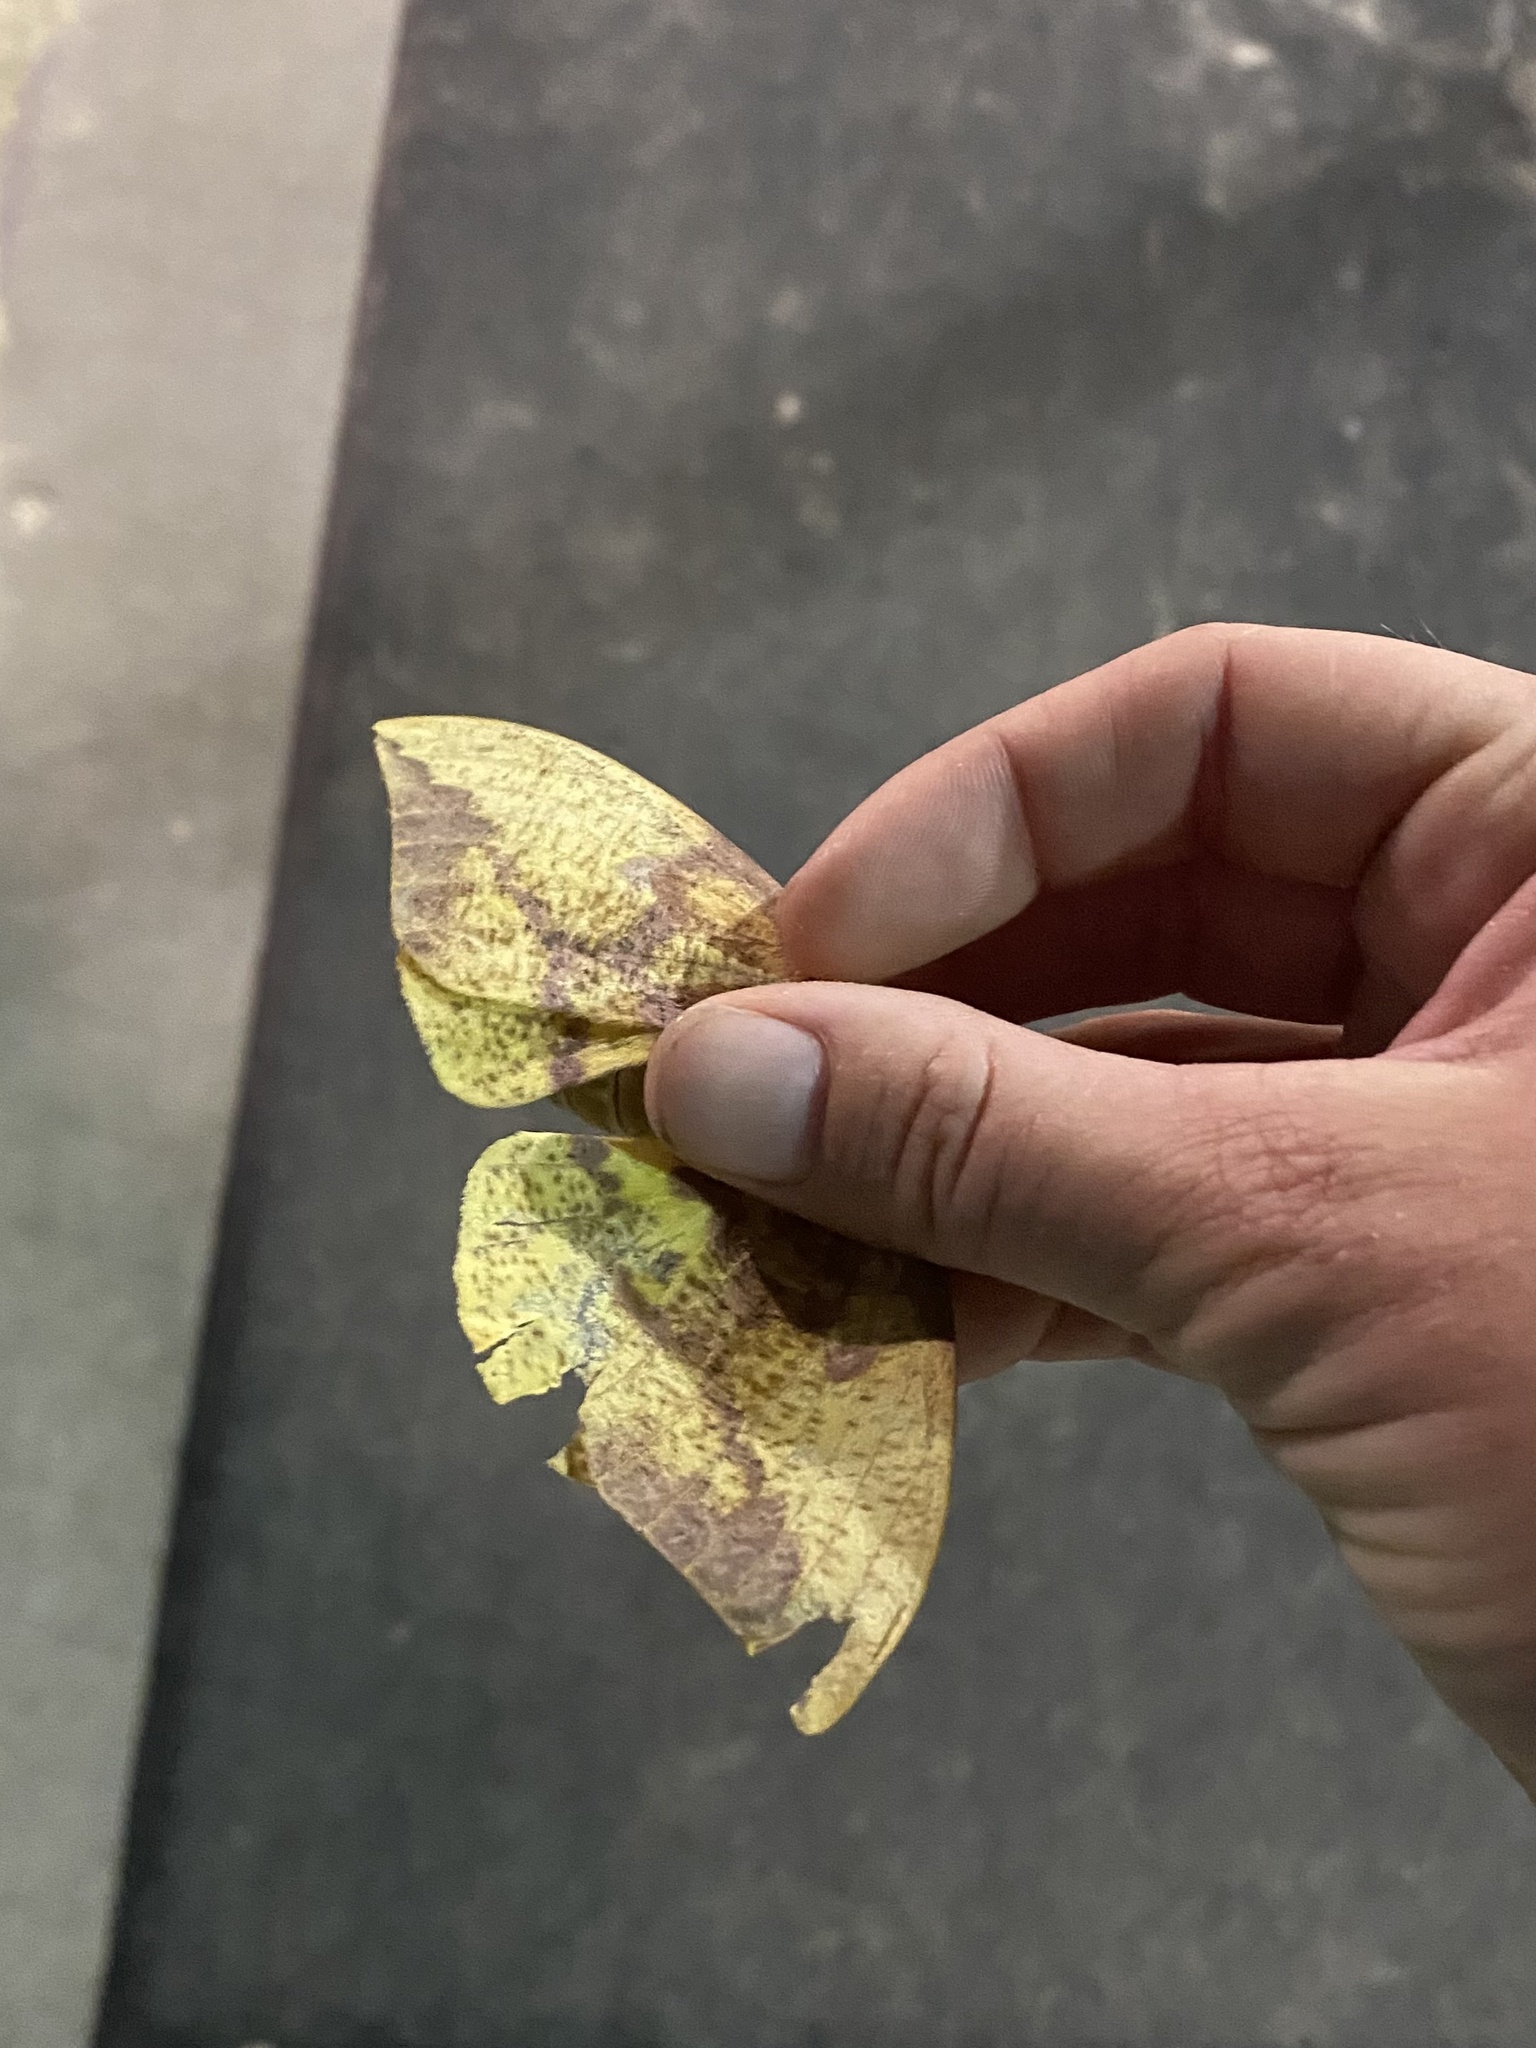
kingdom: Animalia
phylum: Arthropoda
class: Insecta
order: Lepidoptera
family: Saturniidae
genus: Eacles
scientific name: Eacles imperialis
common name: Imperial moth
